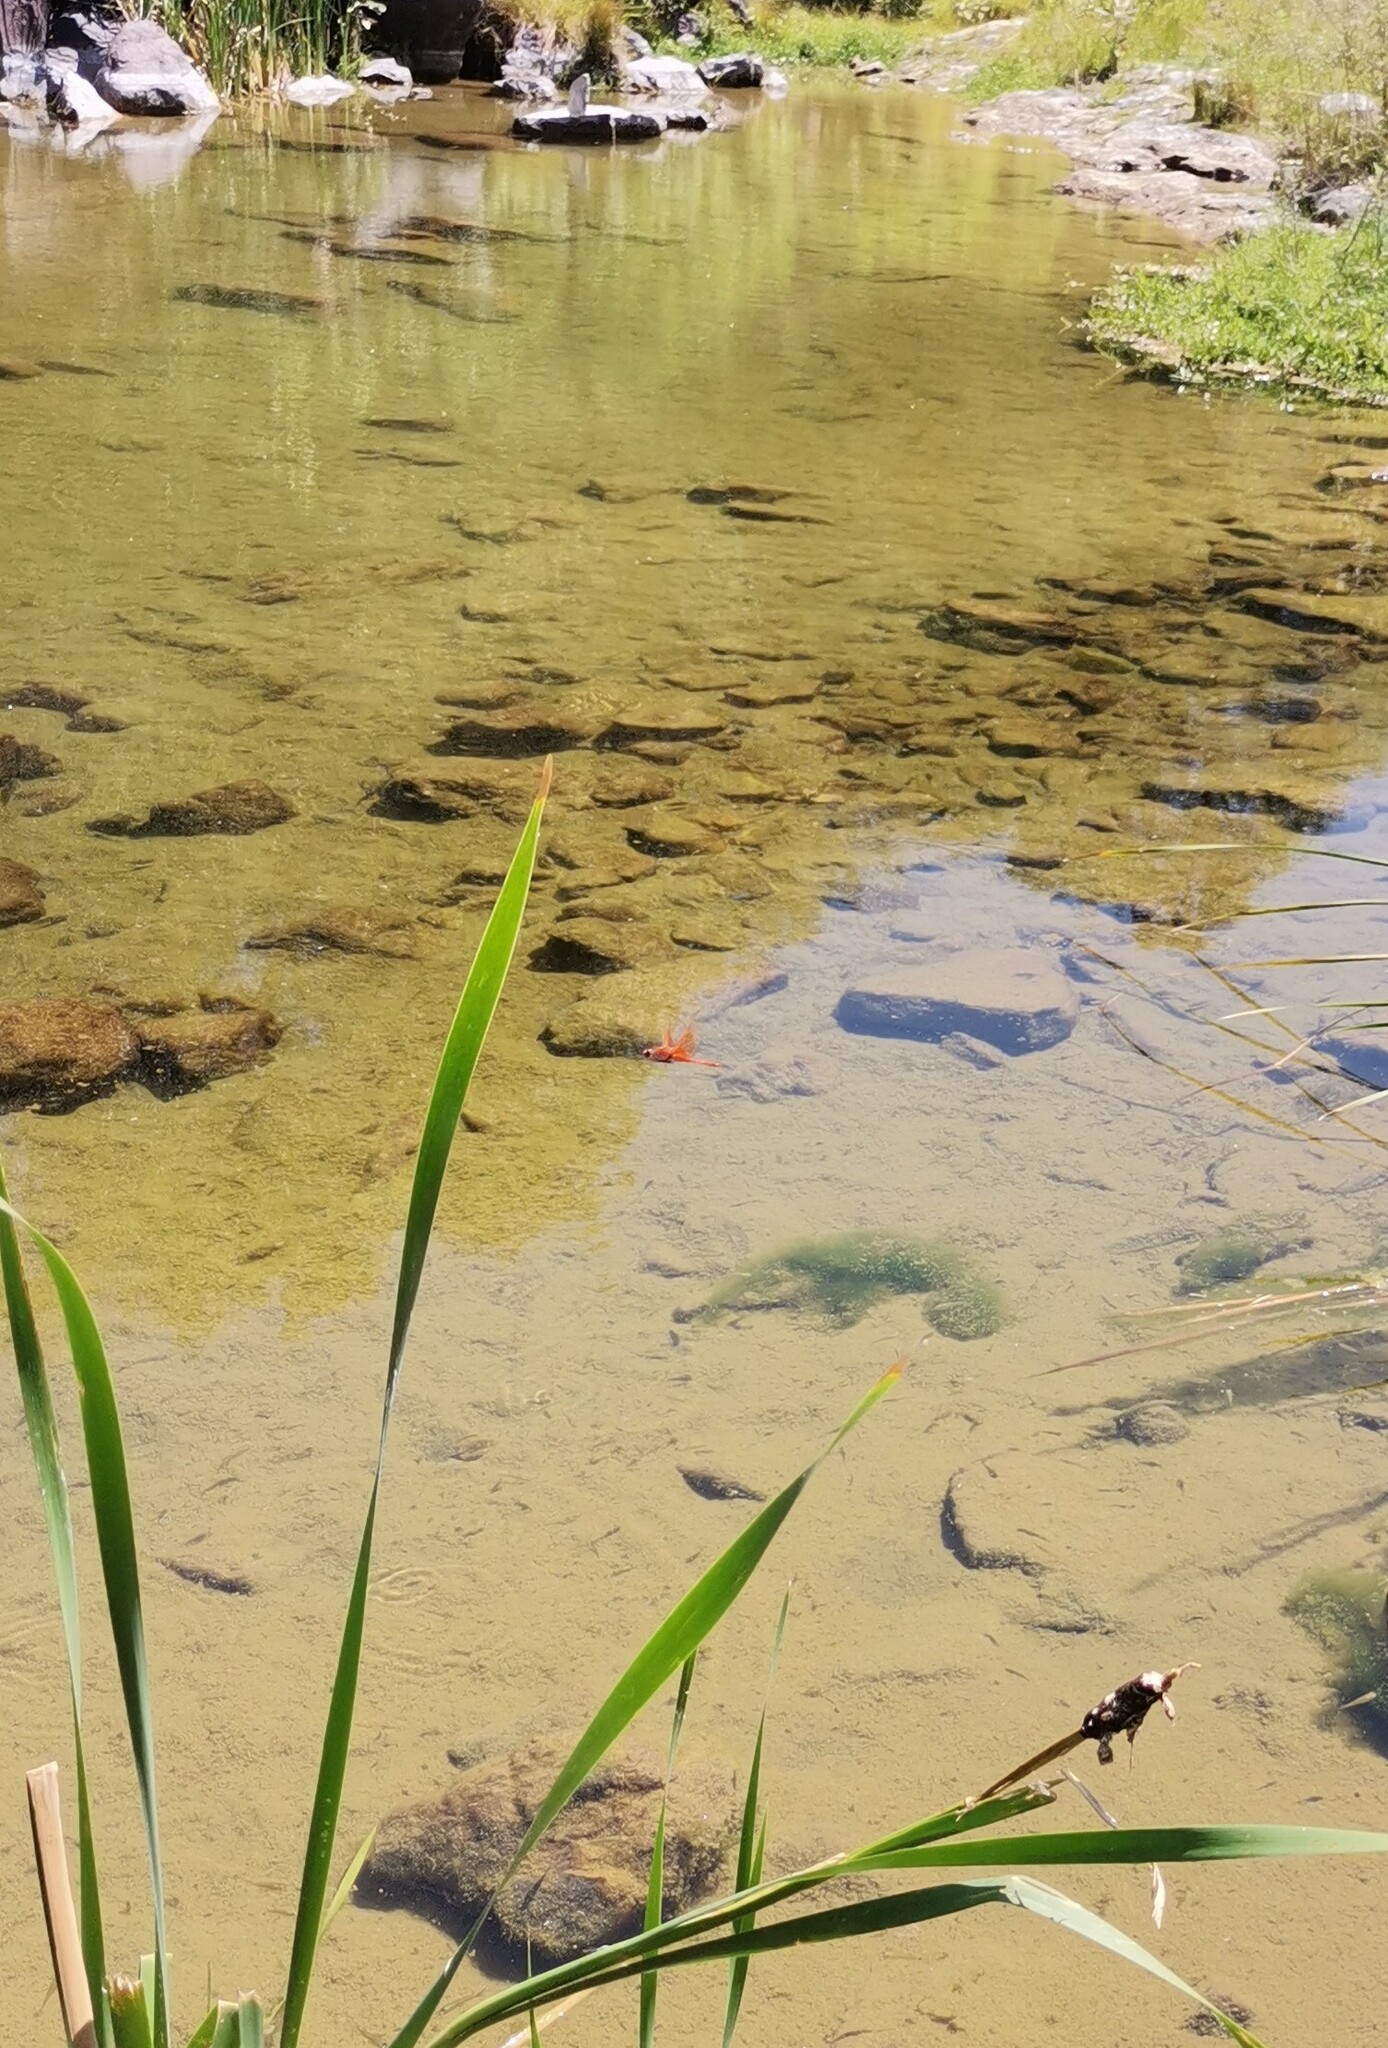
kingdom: Animalia
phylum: Arthropoda
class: Insecta
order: Odonata
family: Libellulidae
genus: Libellula
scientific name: Libellula saturata
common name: Flame skimmer
